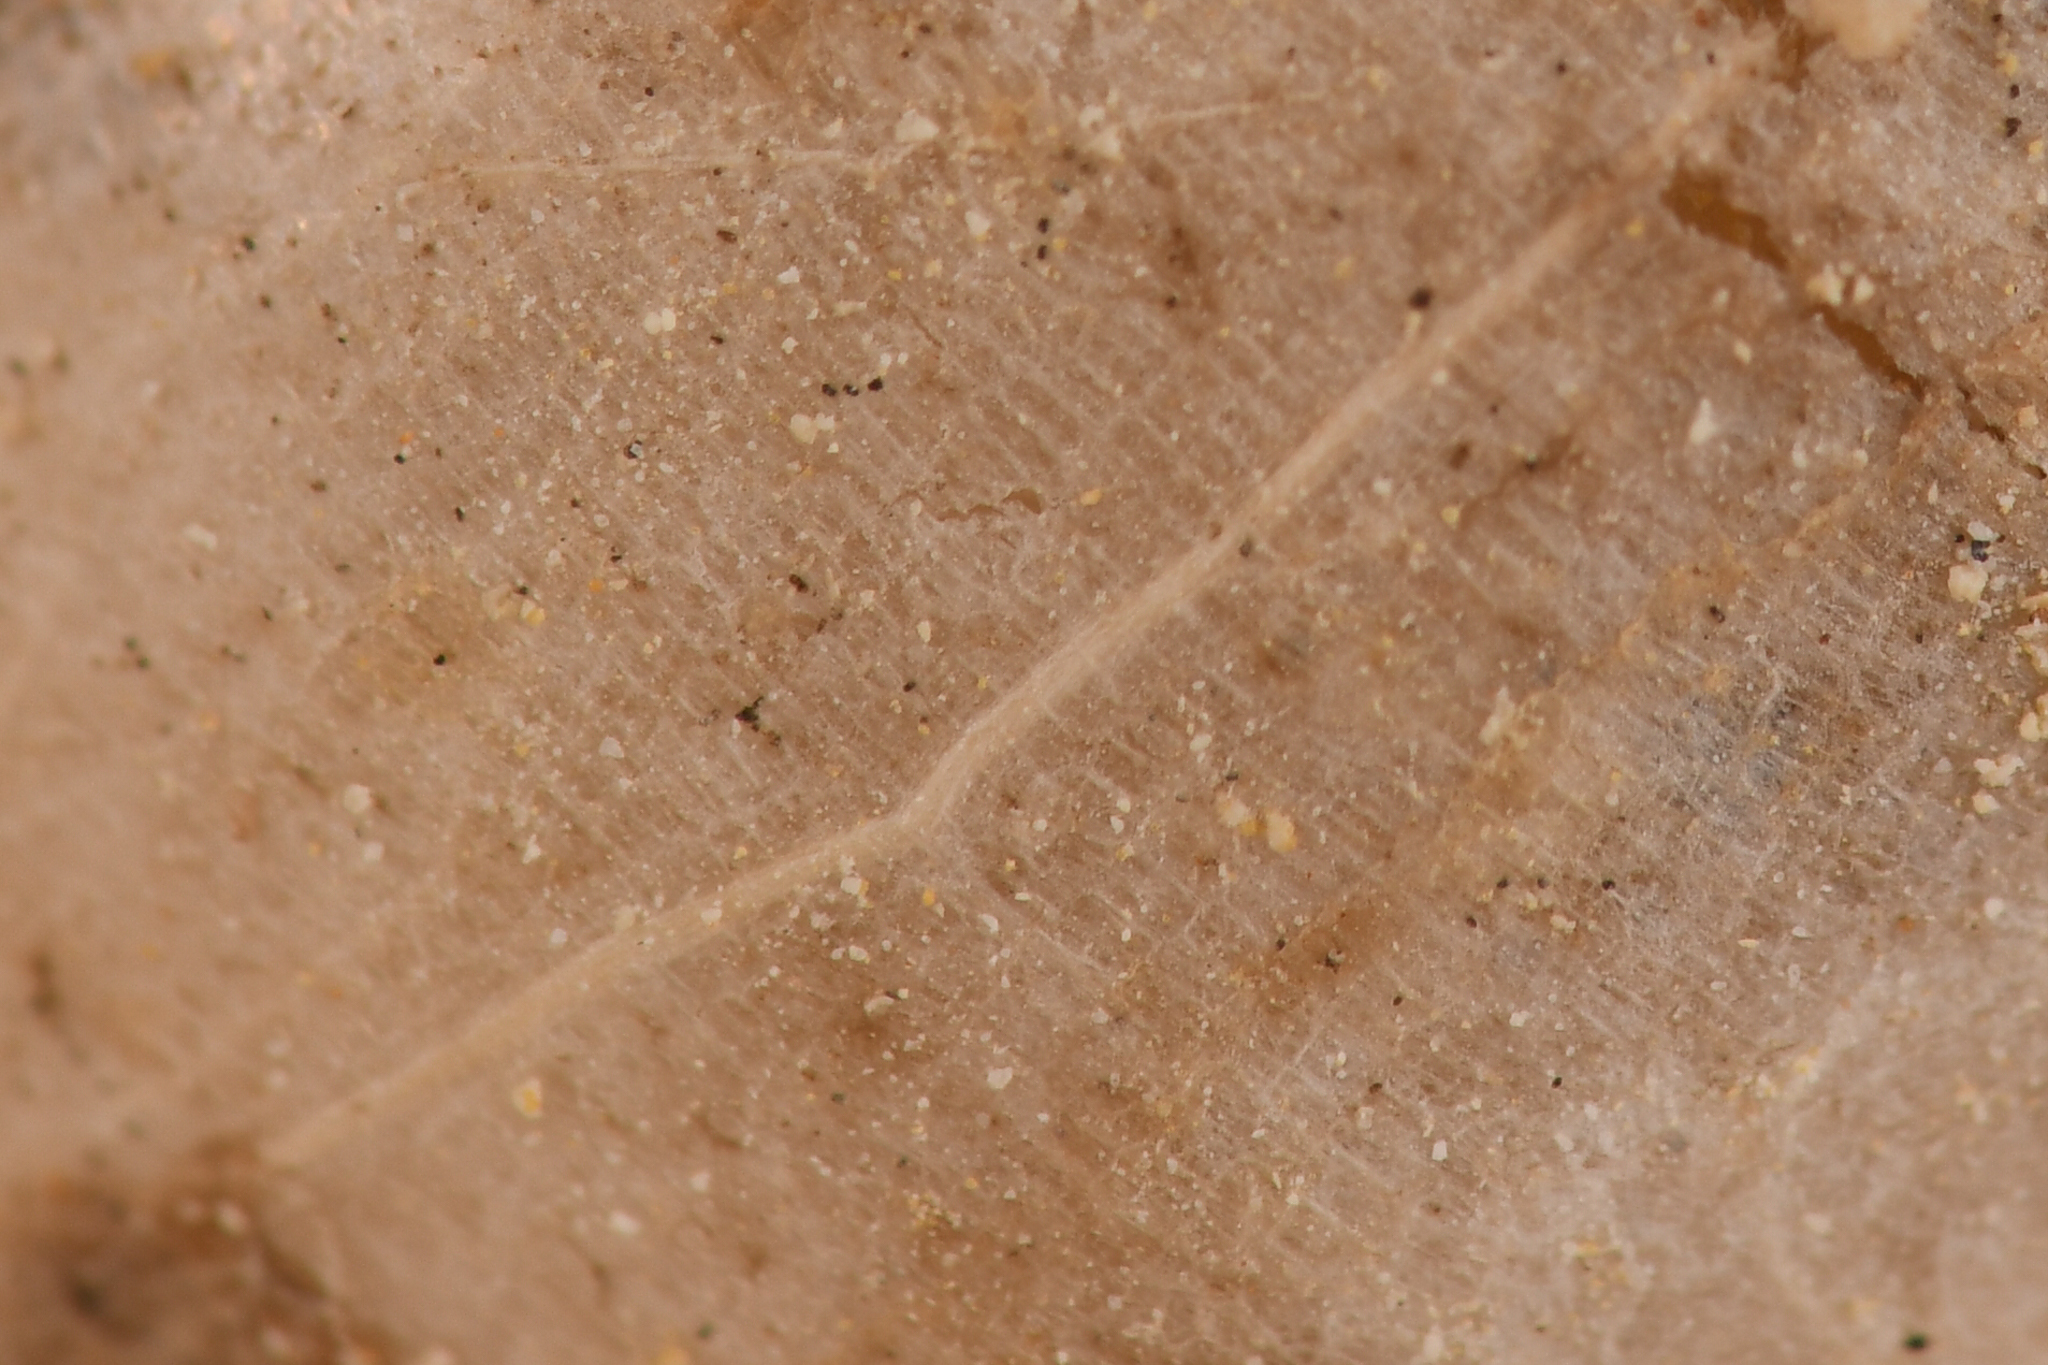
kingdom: Plantae
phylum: Tracheophyta
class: Liliopsida
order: Asparagales
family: Amaryllidaceae
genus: Allium
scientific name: Allium parvum
